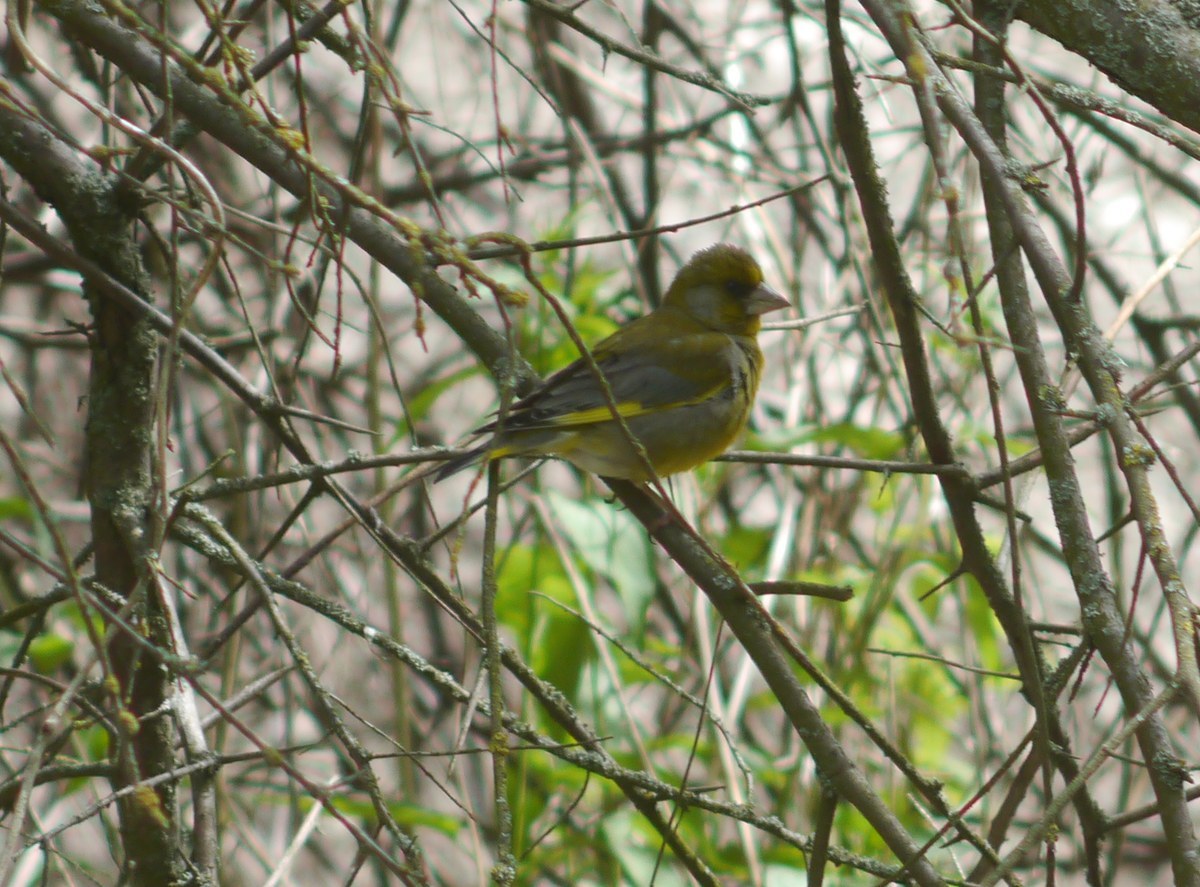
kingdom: Plantae
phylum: Tracheophyta
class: Liliopsida
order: Poales
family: Poaceae
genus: Chloris
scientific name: Chloris chloris
